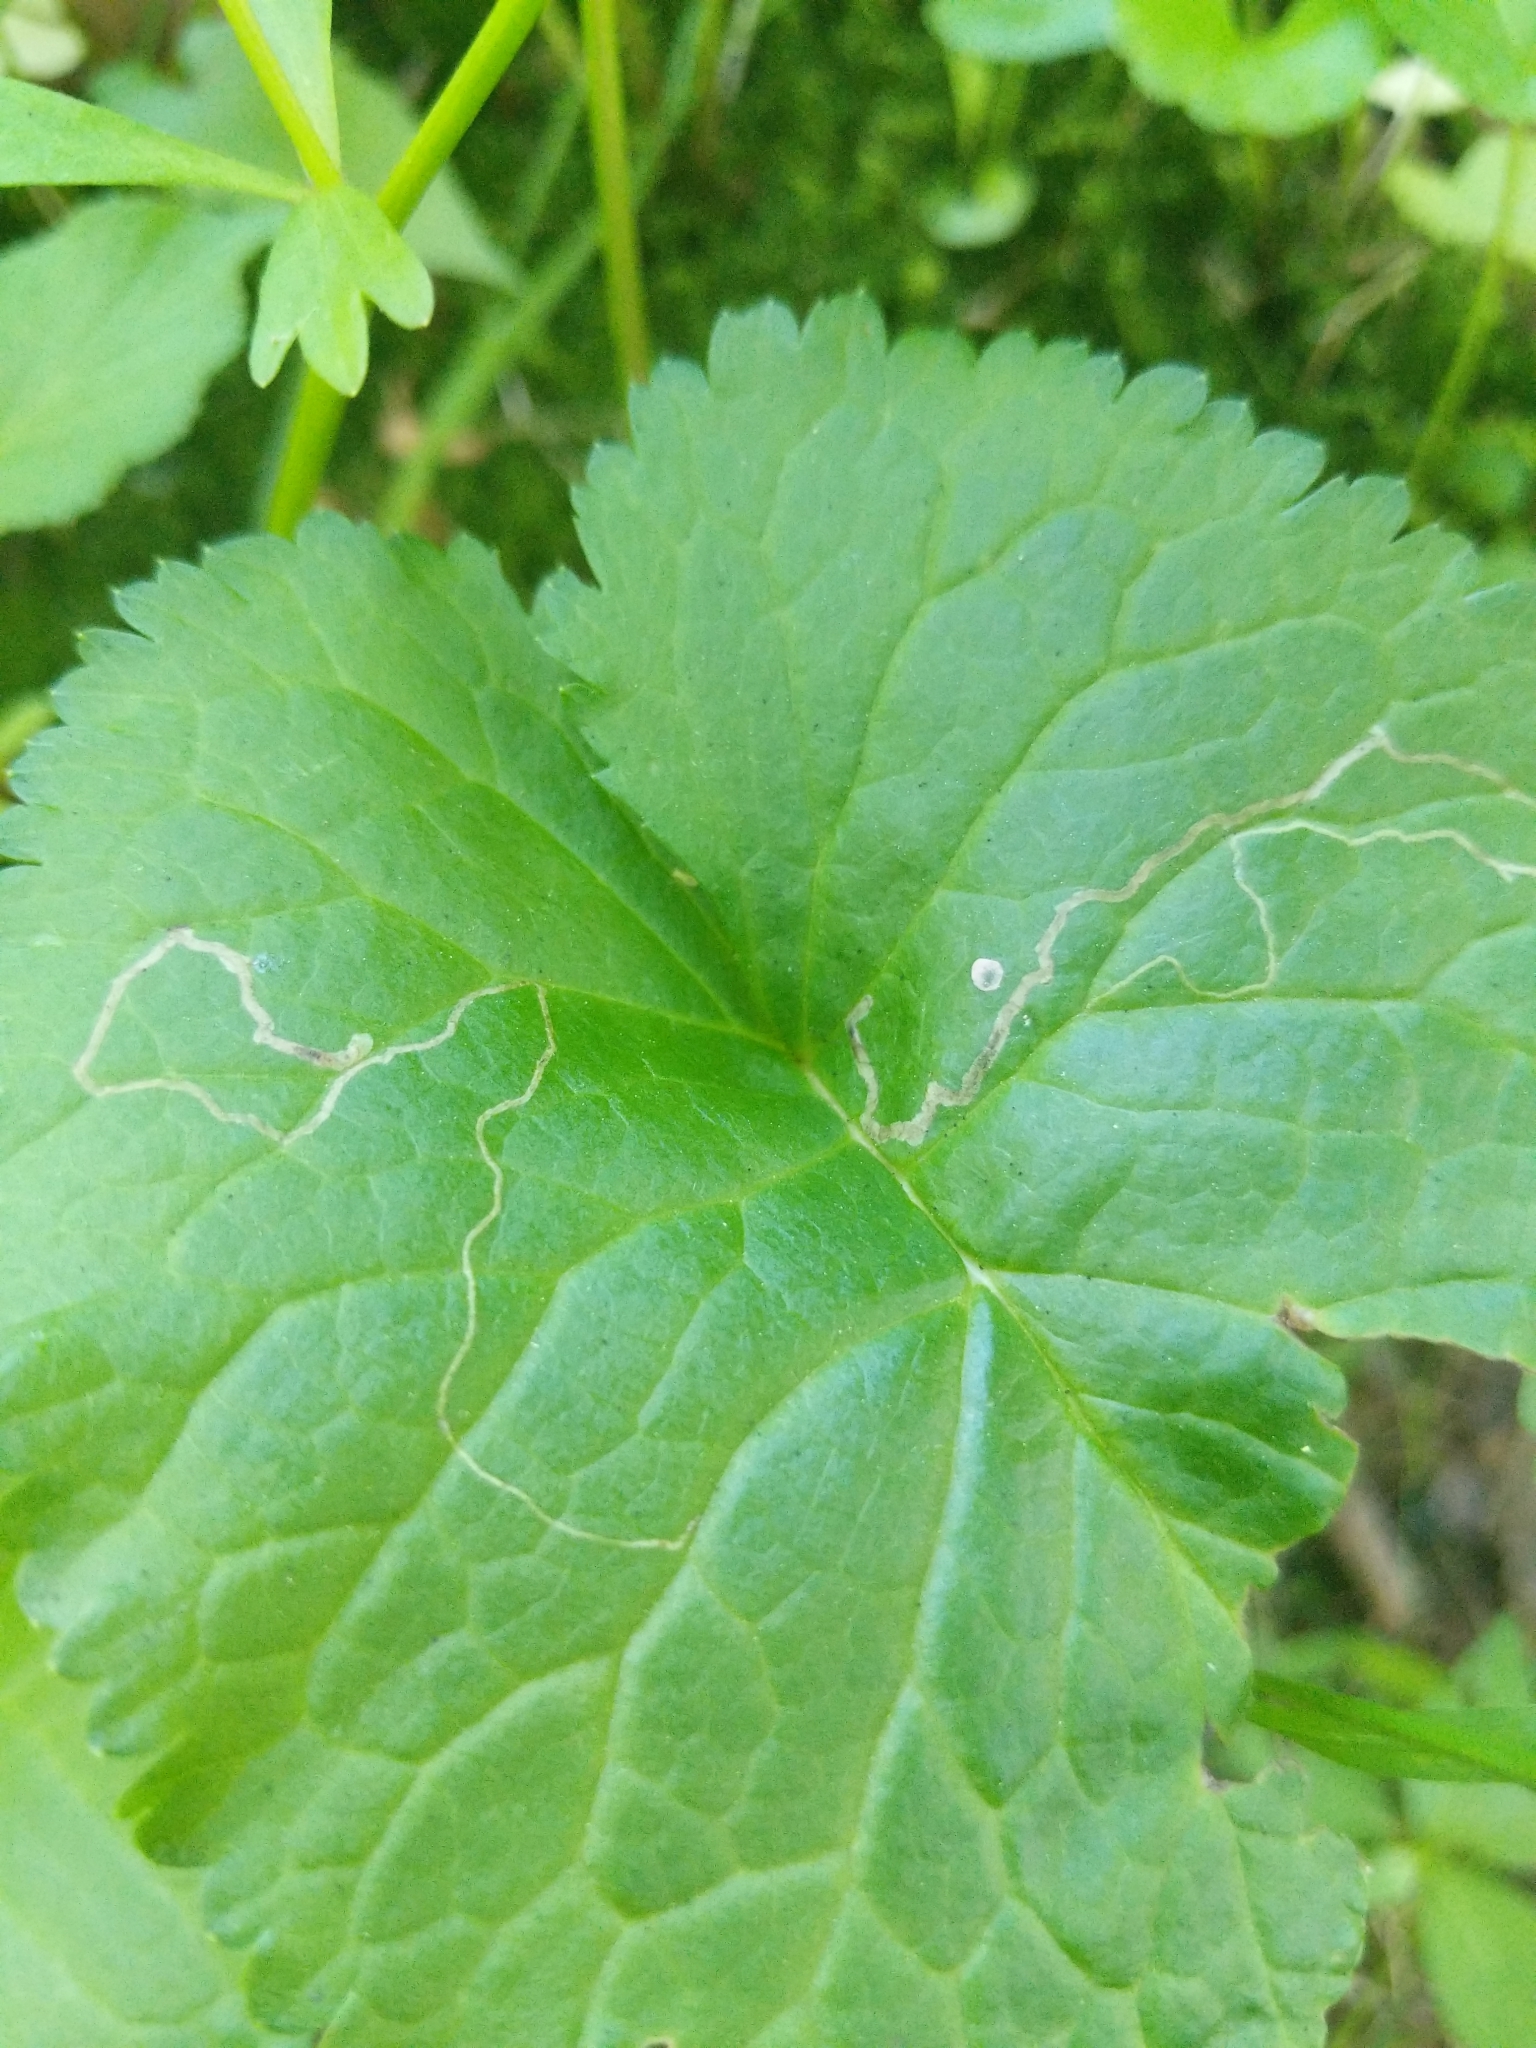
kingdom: Animalia
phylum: Arthropoda
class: Insecta
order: Lepidoptera
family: Gracillariidae
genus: Phyllocnistis
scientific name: Phyllocnistis insignis
